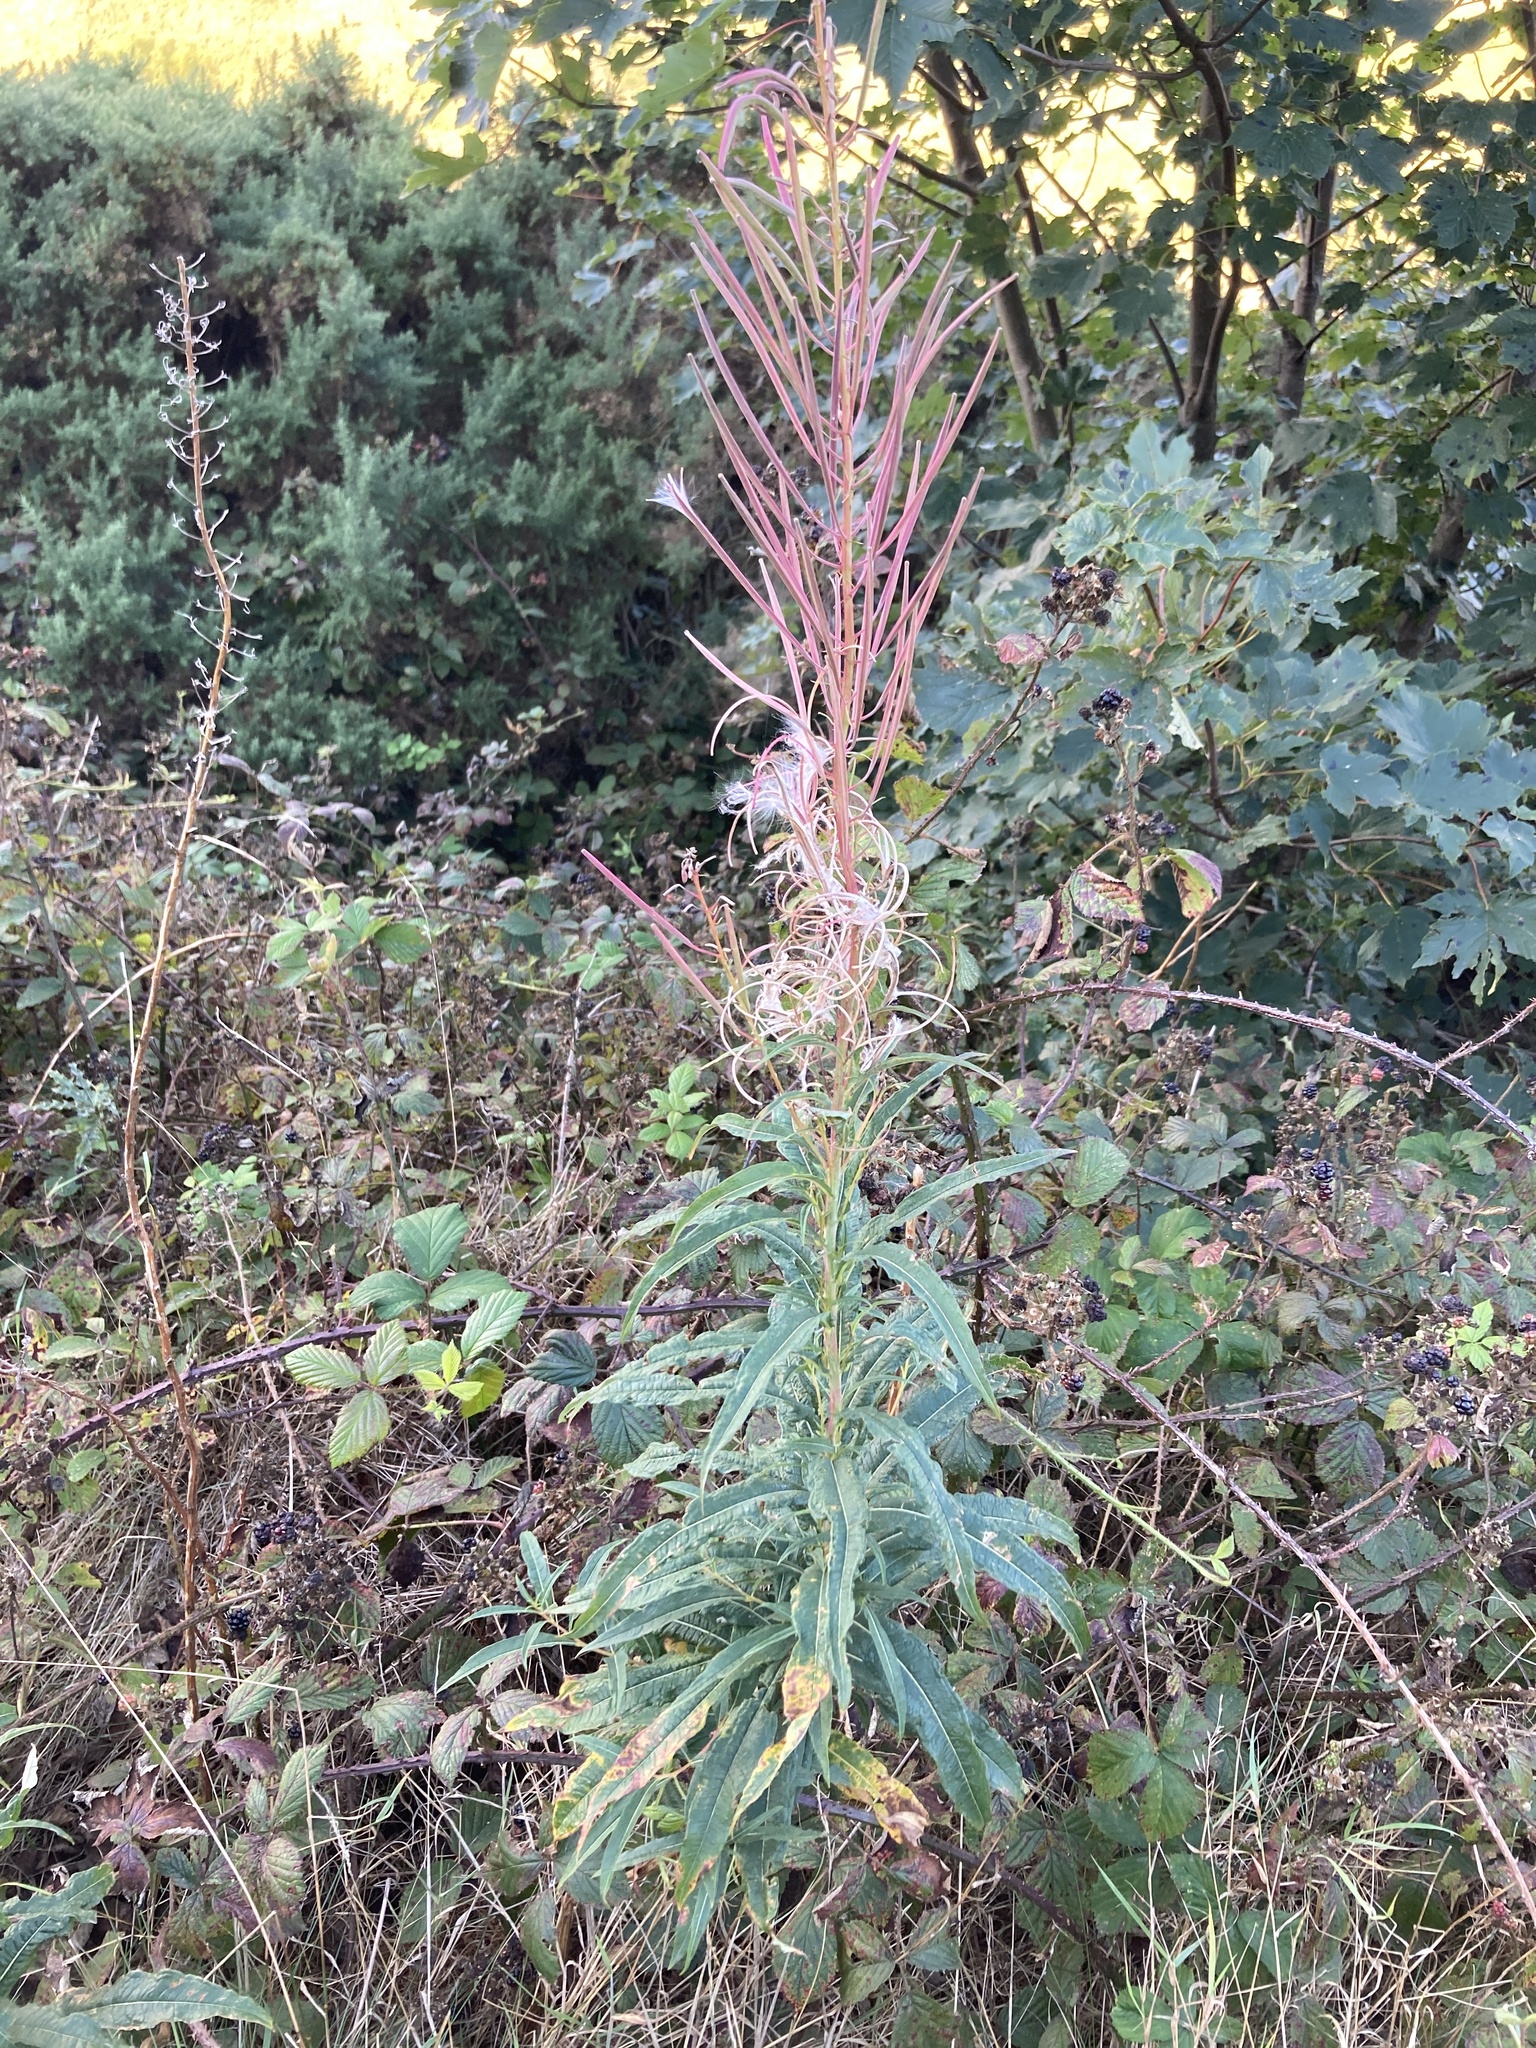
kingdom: Plantae
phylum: Tracheophyta
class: Magnoliopsida
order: Myrtales
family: Onagraceae
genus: Chamaenerion
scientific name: Chamaenerion angustifolium
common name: Fireweed
